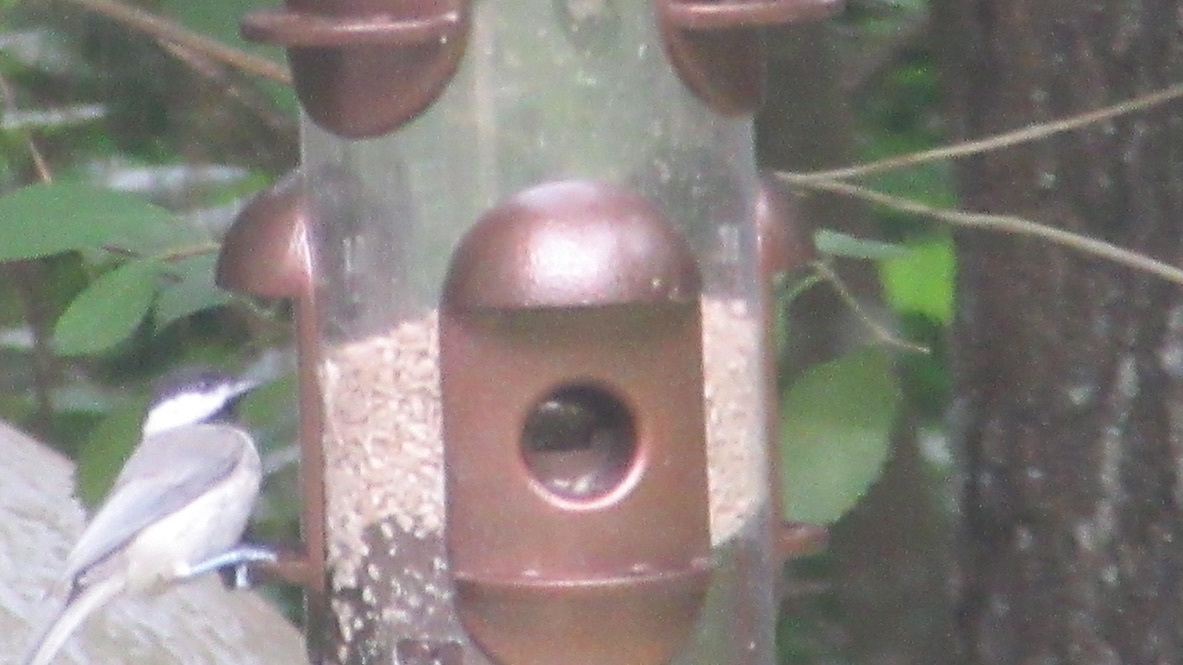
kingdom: Animalia
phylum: Chordata
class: Aves
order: Passeriformes
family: Paridae
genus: Poecile
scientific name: Poecile carolinensis
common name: Carolina chickadee
